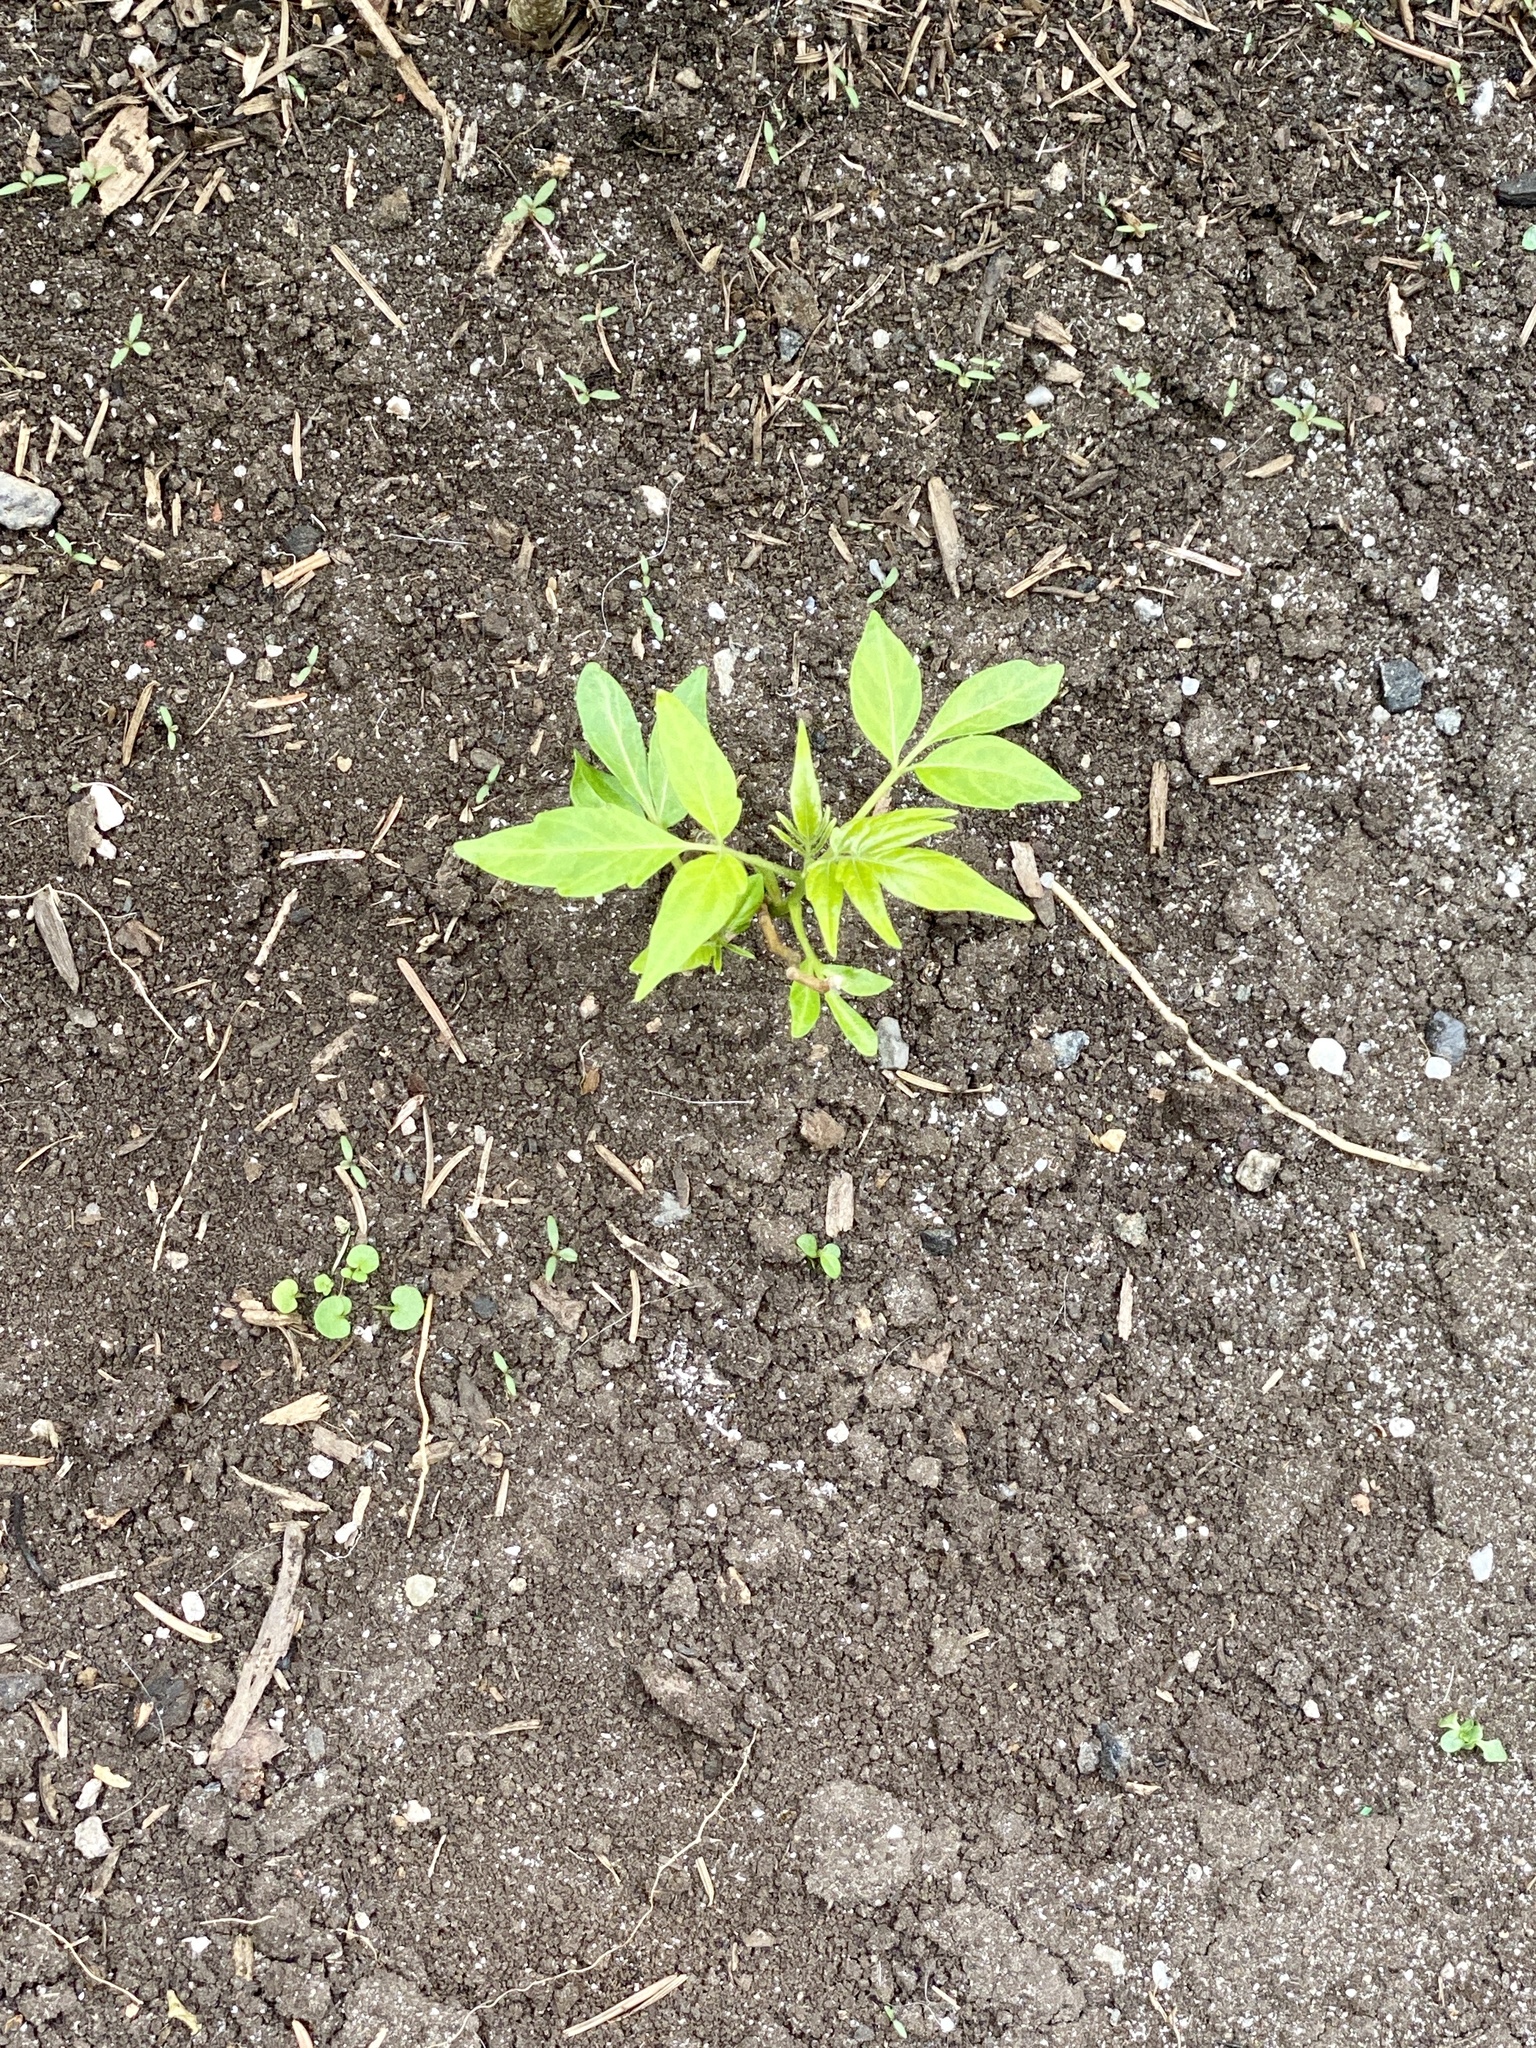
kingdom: Plantae
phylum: Tracheophyta
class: Magnoliopsida
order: Sapindales
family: Simaroubaceae
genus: Ailanthus
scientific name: Ailanthus altissima
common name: Tree-of-heaven
